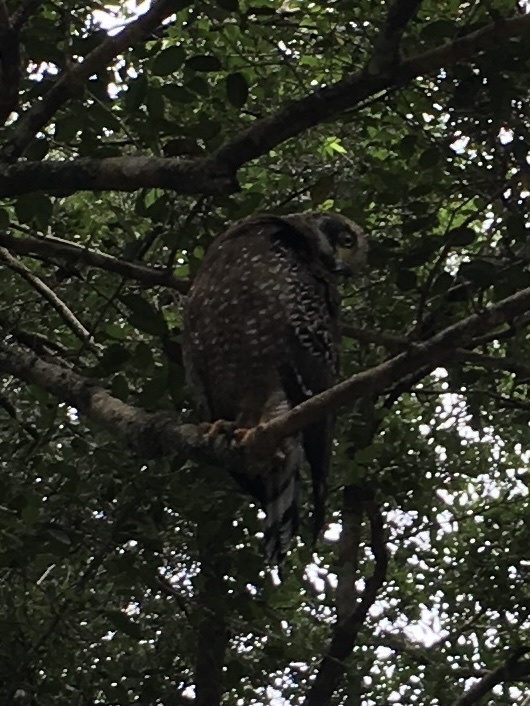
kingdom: Animalia
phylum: Chordata
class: Aves
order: Accipitriformes
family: Accipitridae
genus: Spilornis
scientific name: Spilornis cheela
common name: Crested serpent eagle
